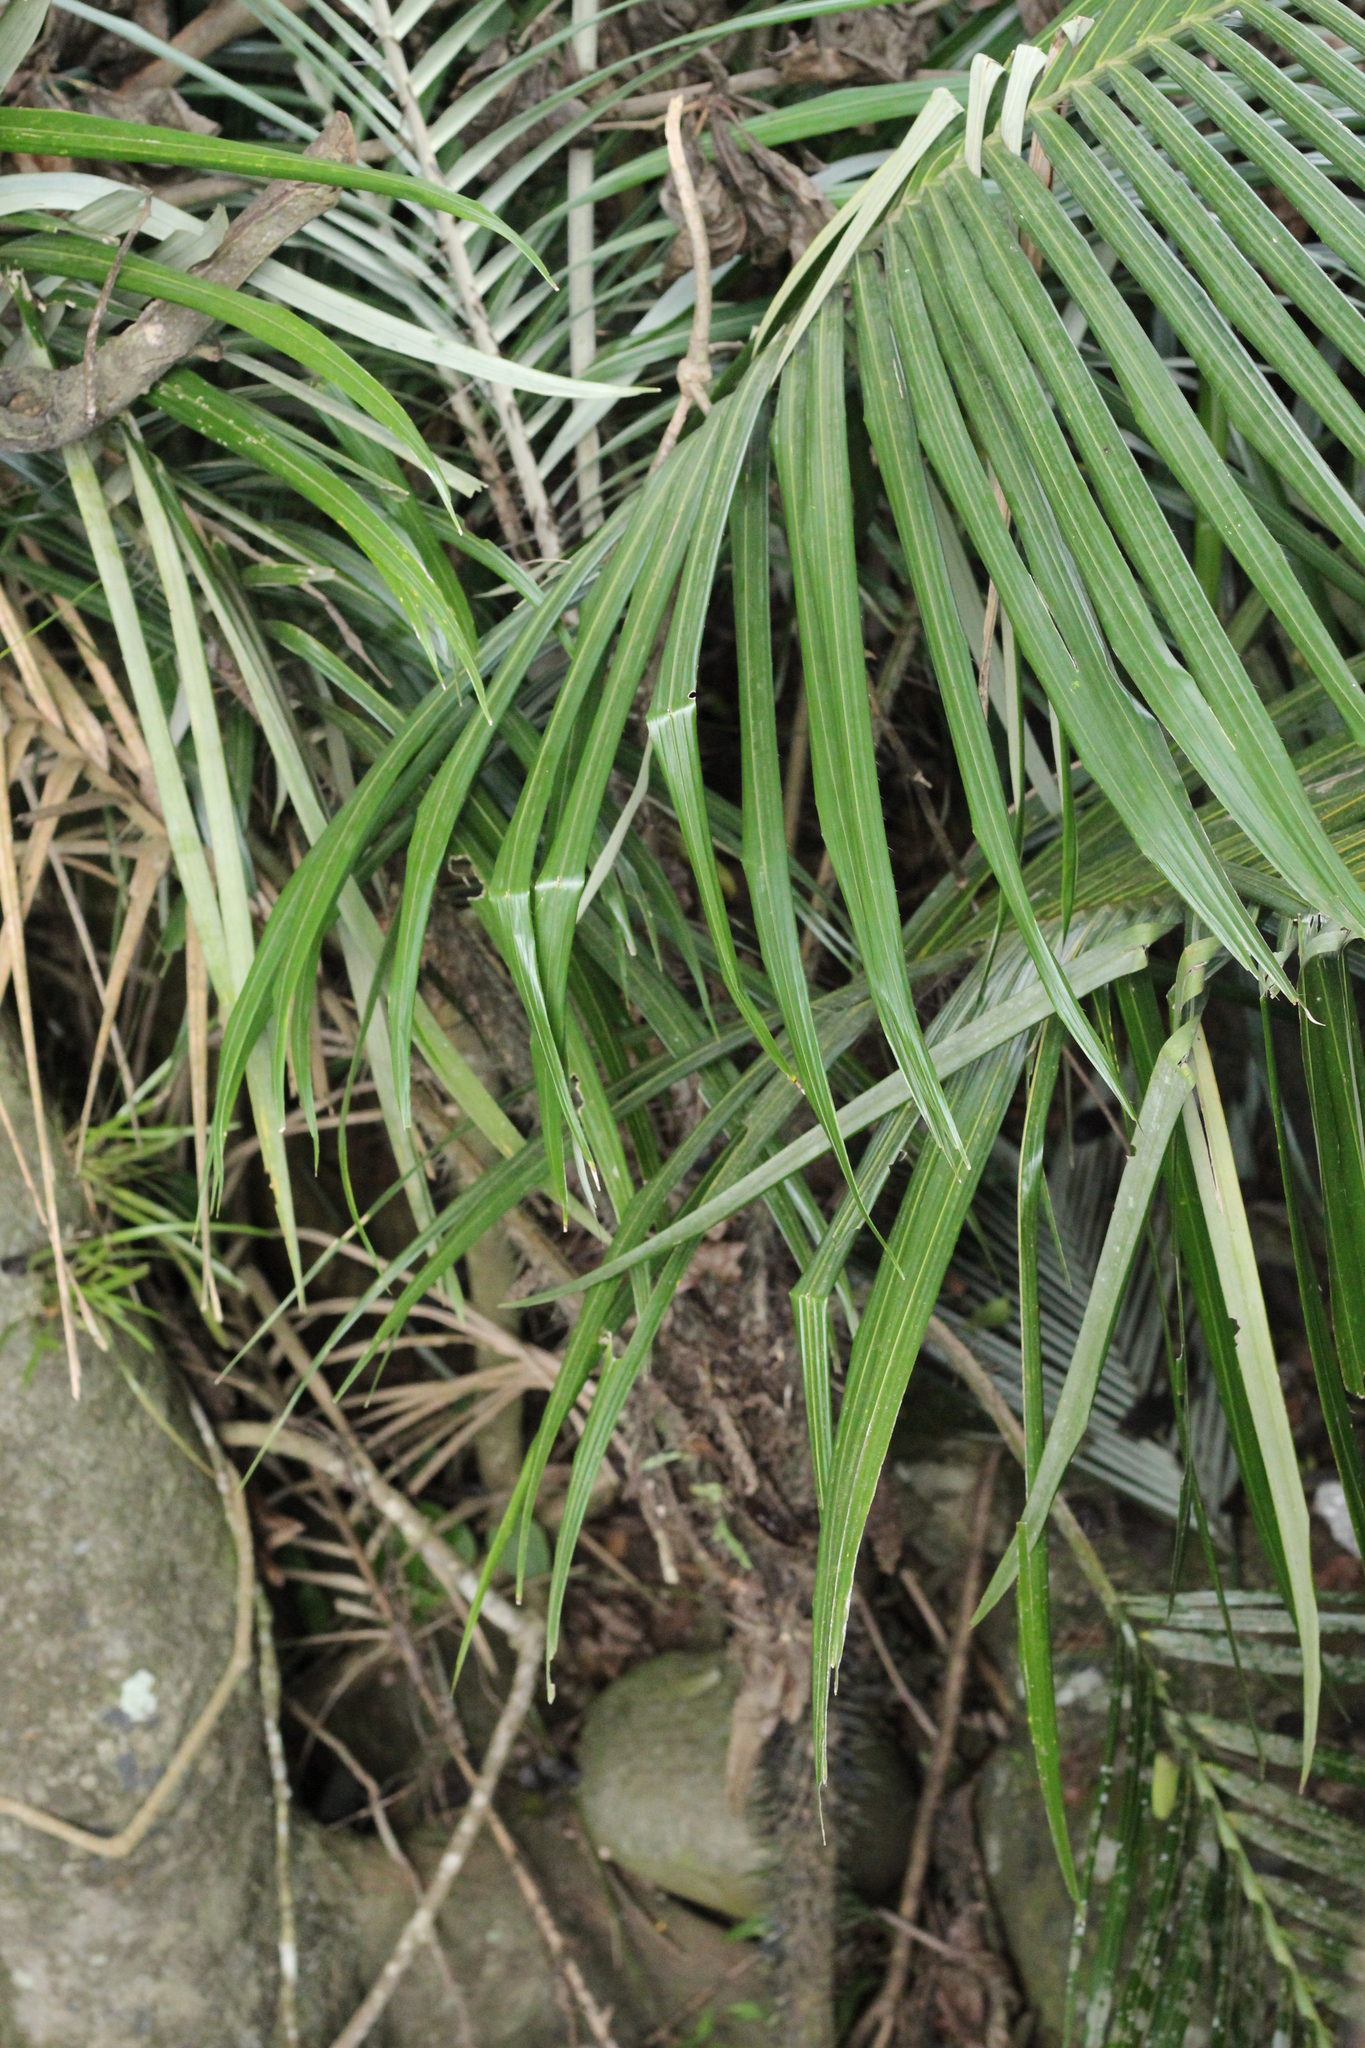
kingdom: Plantae
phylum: Tracheophyta
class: Liliopsida
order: Arecales
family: Arecaceae
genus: Astrocaryum
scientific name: Astrocaryum mexicanum
